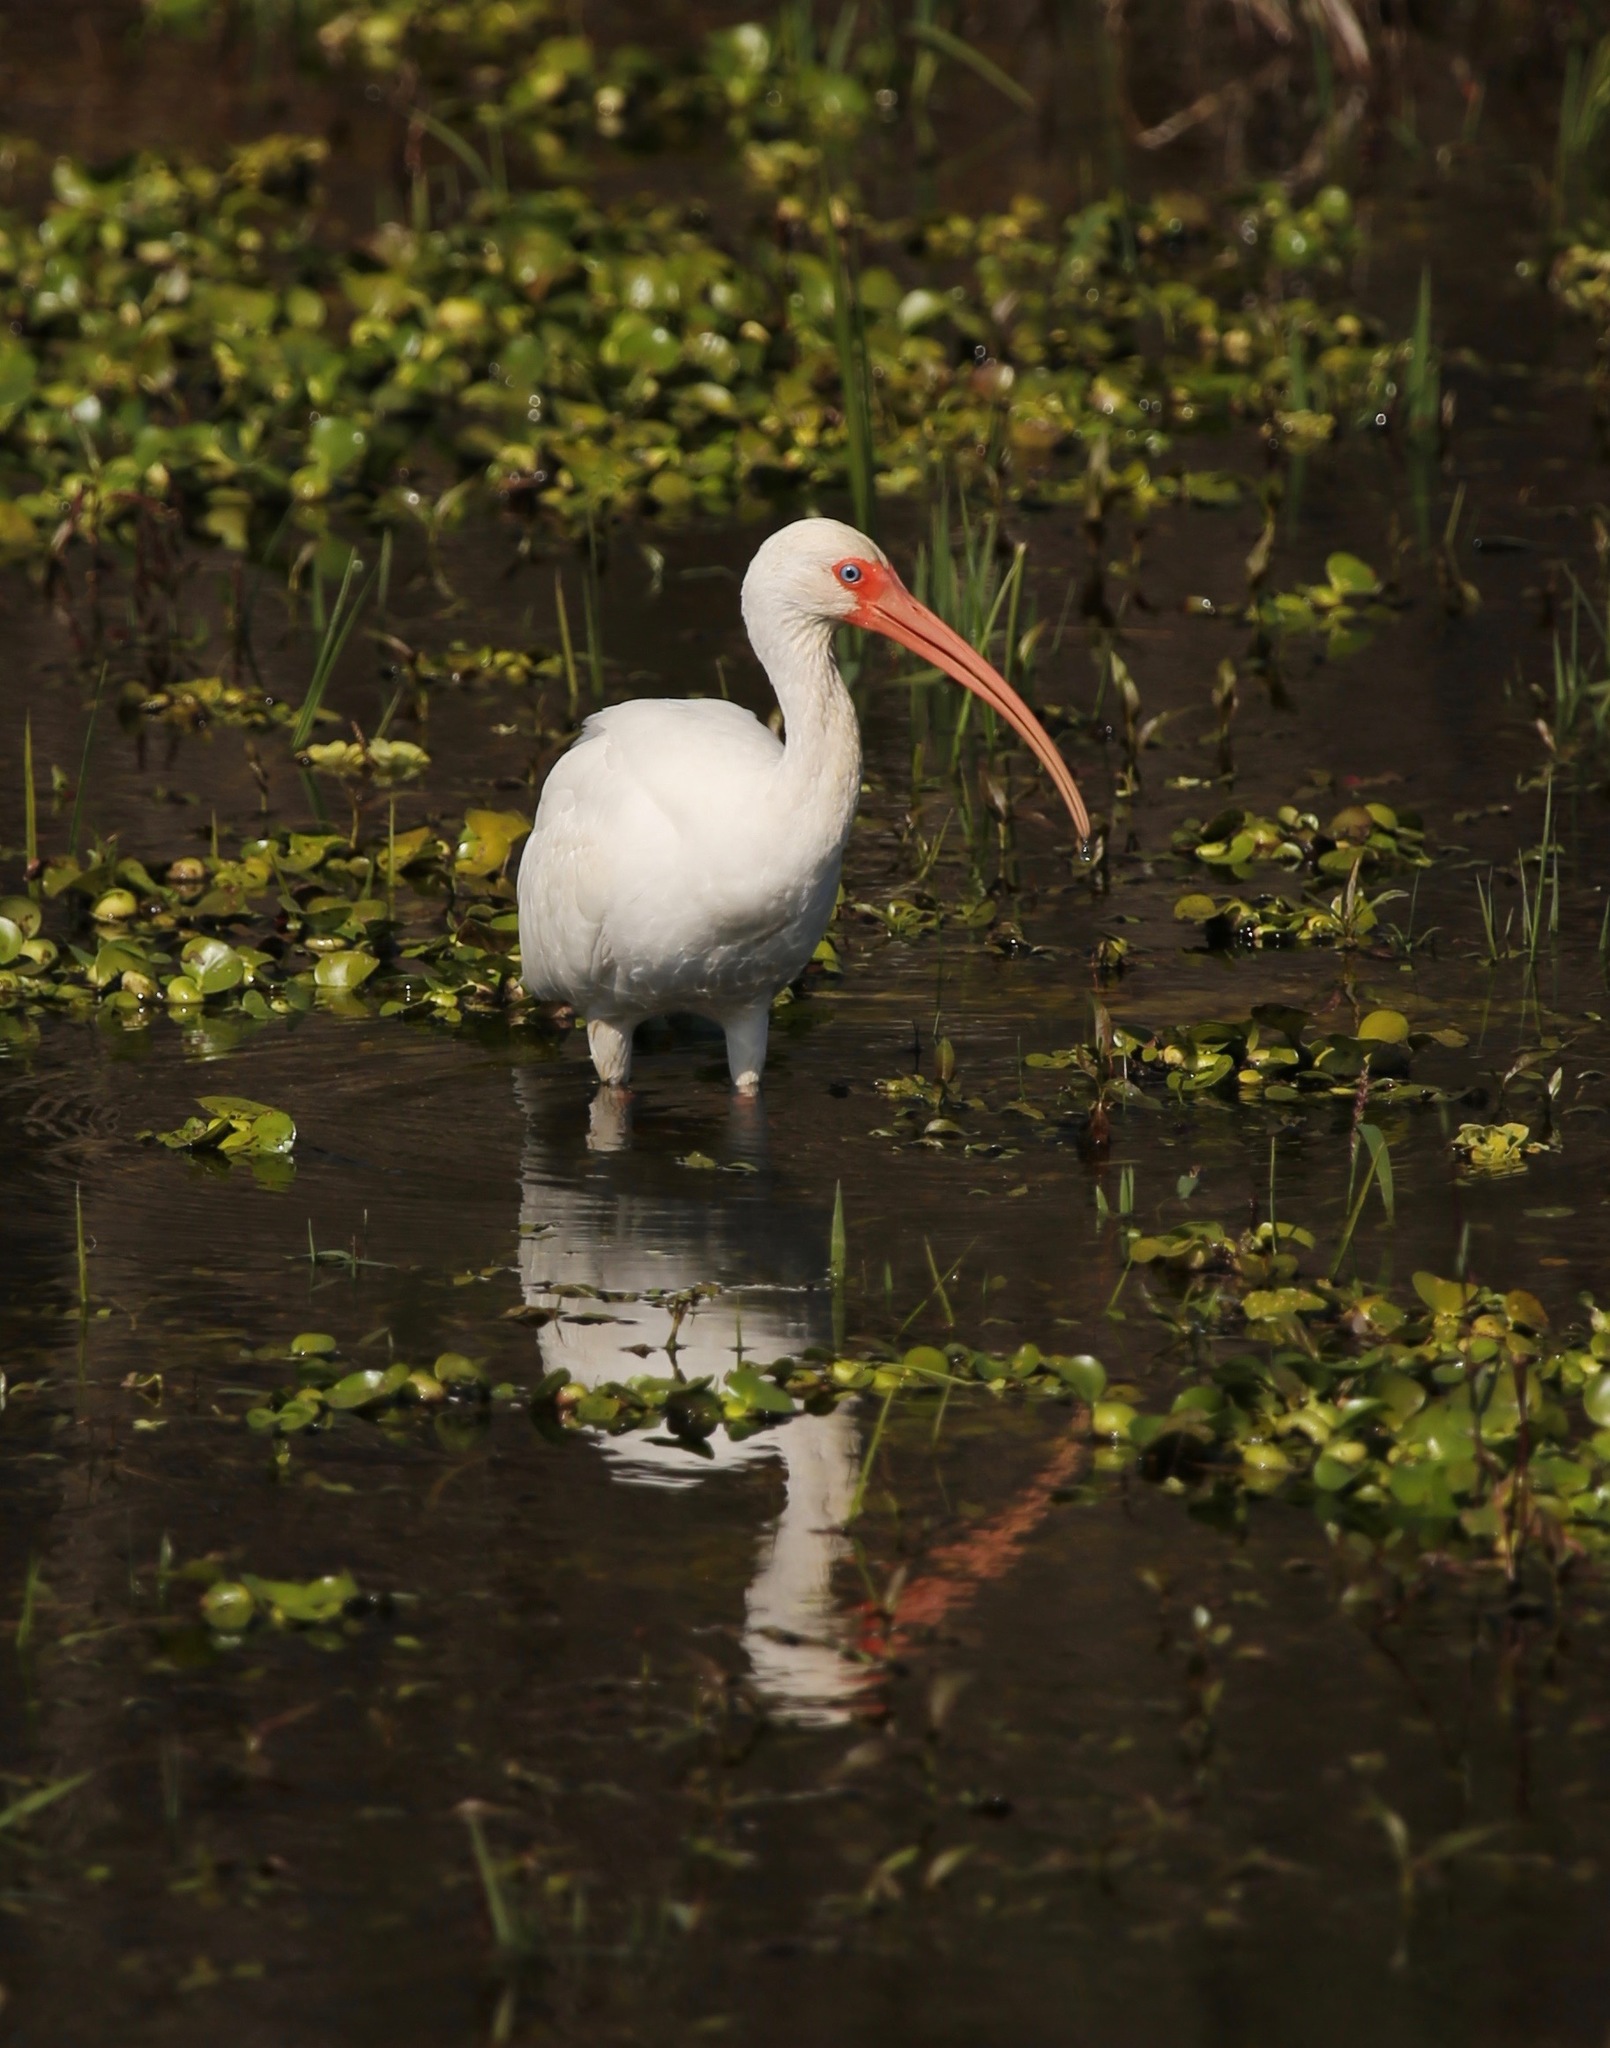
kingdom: Animalia
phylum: Chordata
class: Aves
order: Pelecaniformes
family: Threskiornithidae
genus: Eudocimus
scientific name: Eudocimus albus
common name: White ibis
